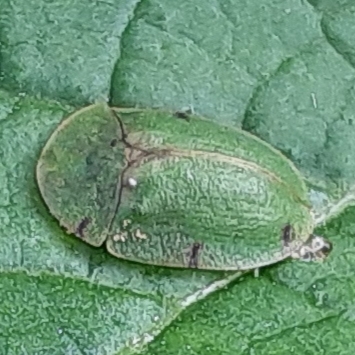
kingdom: Animalia
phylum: Arthropoda
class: Insecta
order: Coleoptera
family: Chrysomelidae
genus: Cassida
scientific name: Cassida rubiginosa
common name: Thistle tortoise beetle
